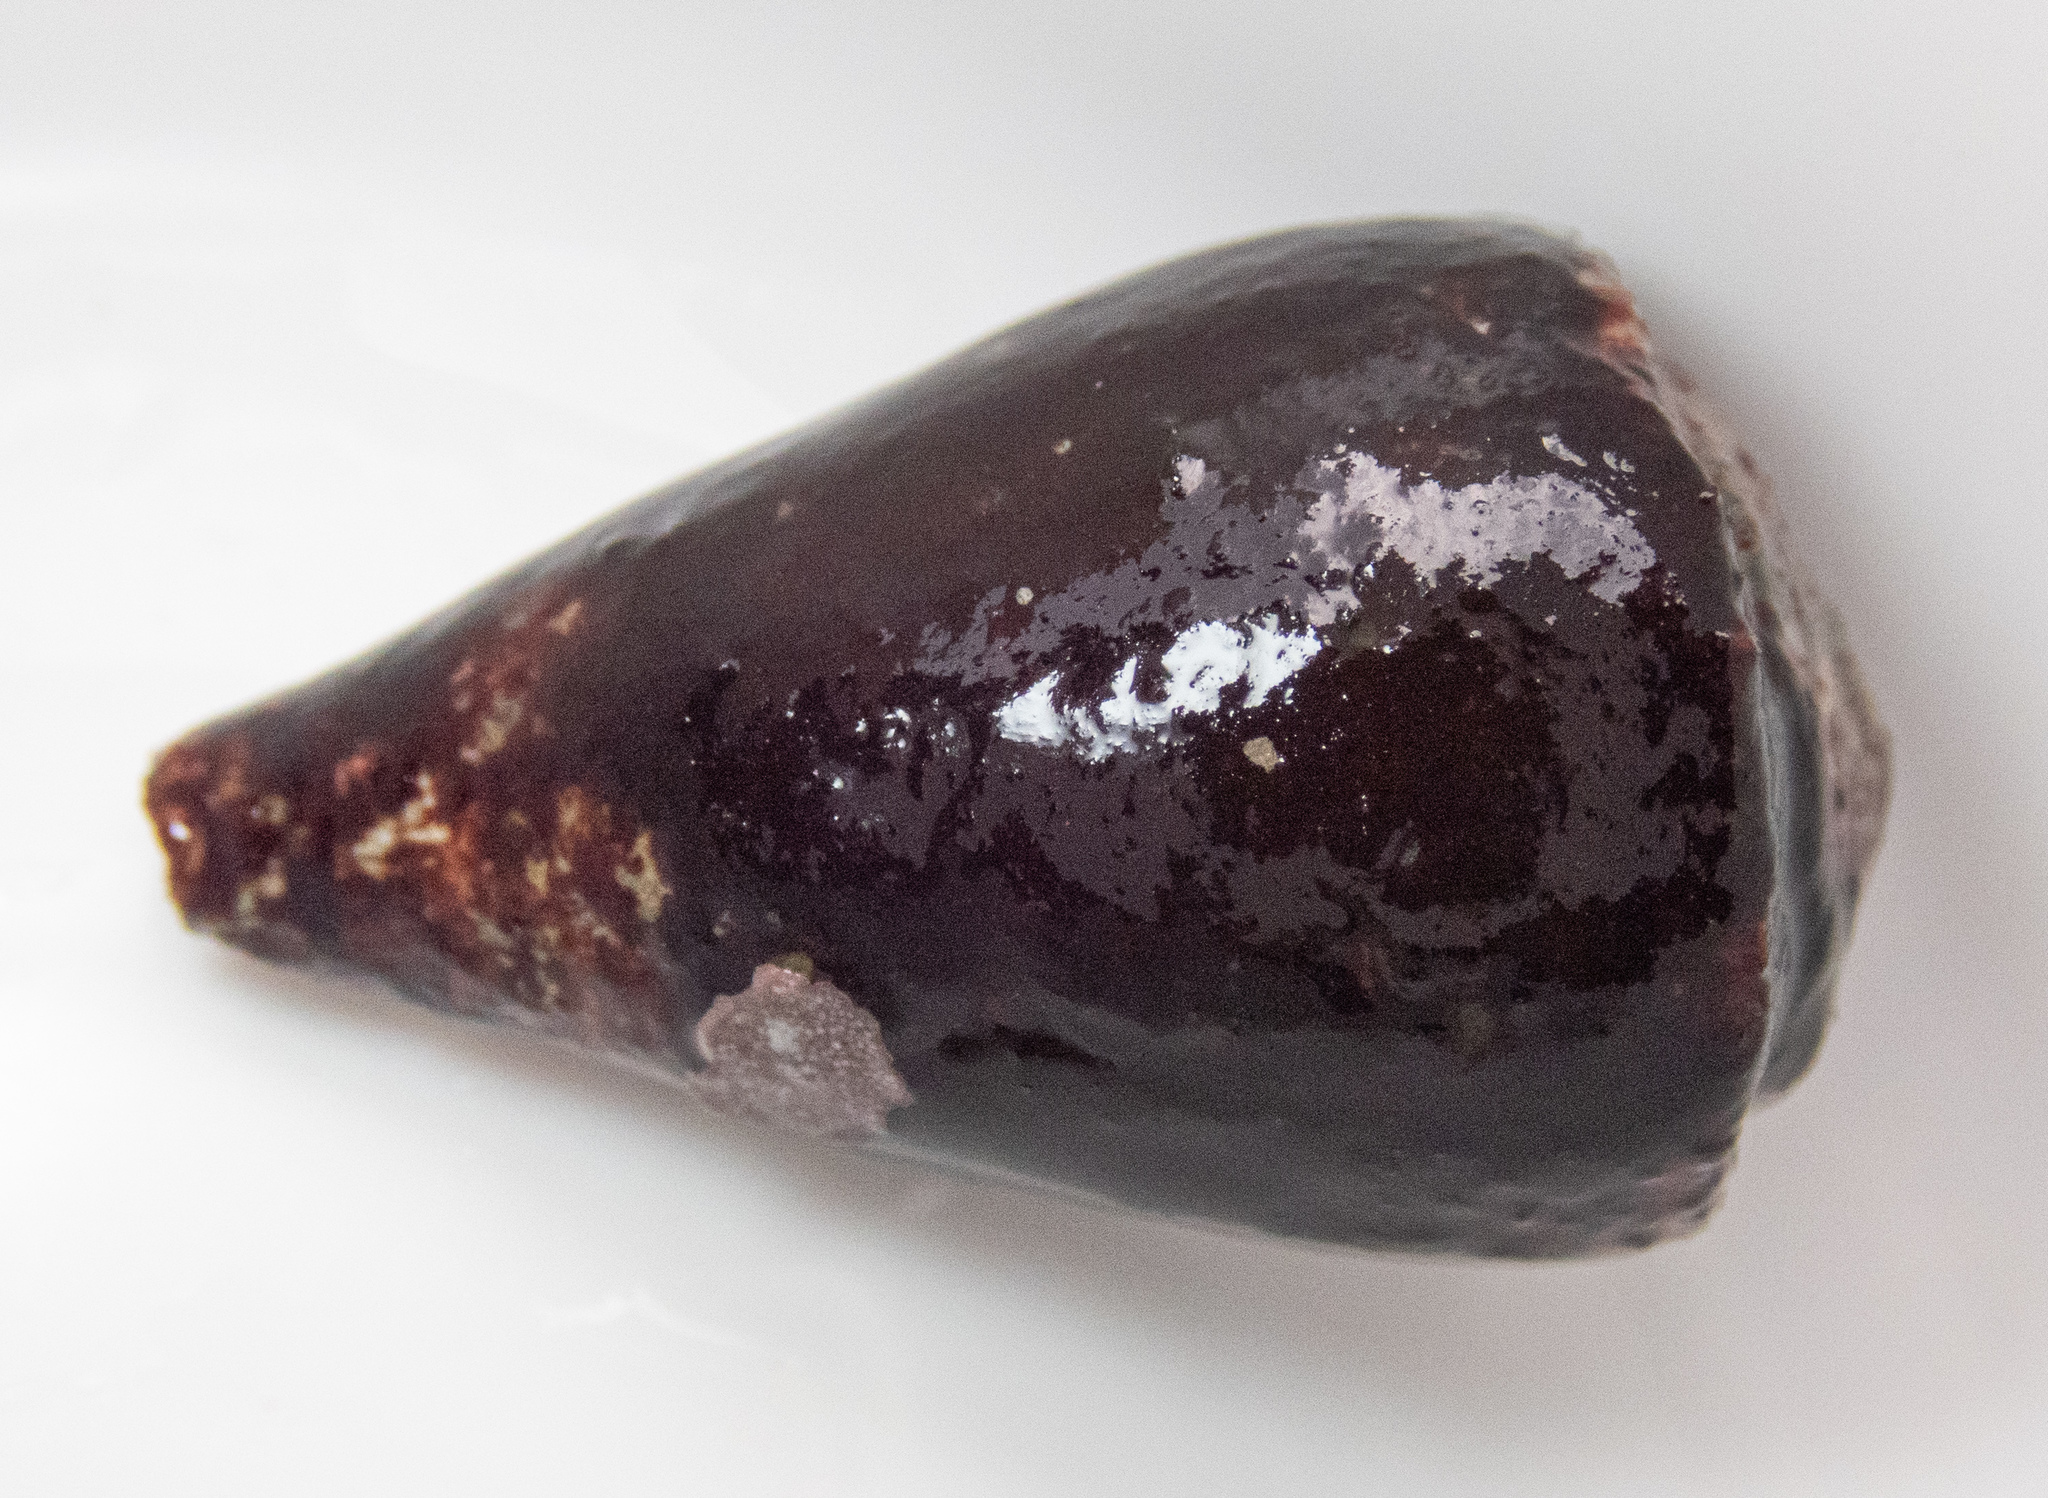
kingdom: Animalia
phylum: Mollusca
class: Gastropoda
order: Neogastropoda
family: Conidae
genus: Conus
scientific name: Conus rattus
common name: Rat cone
